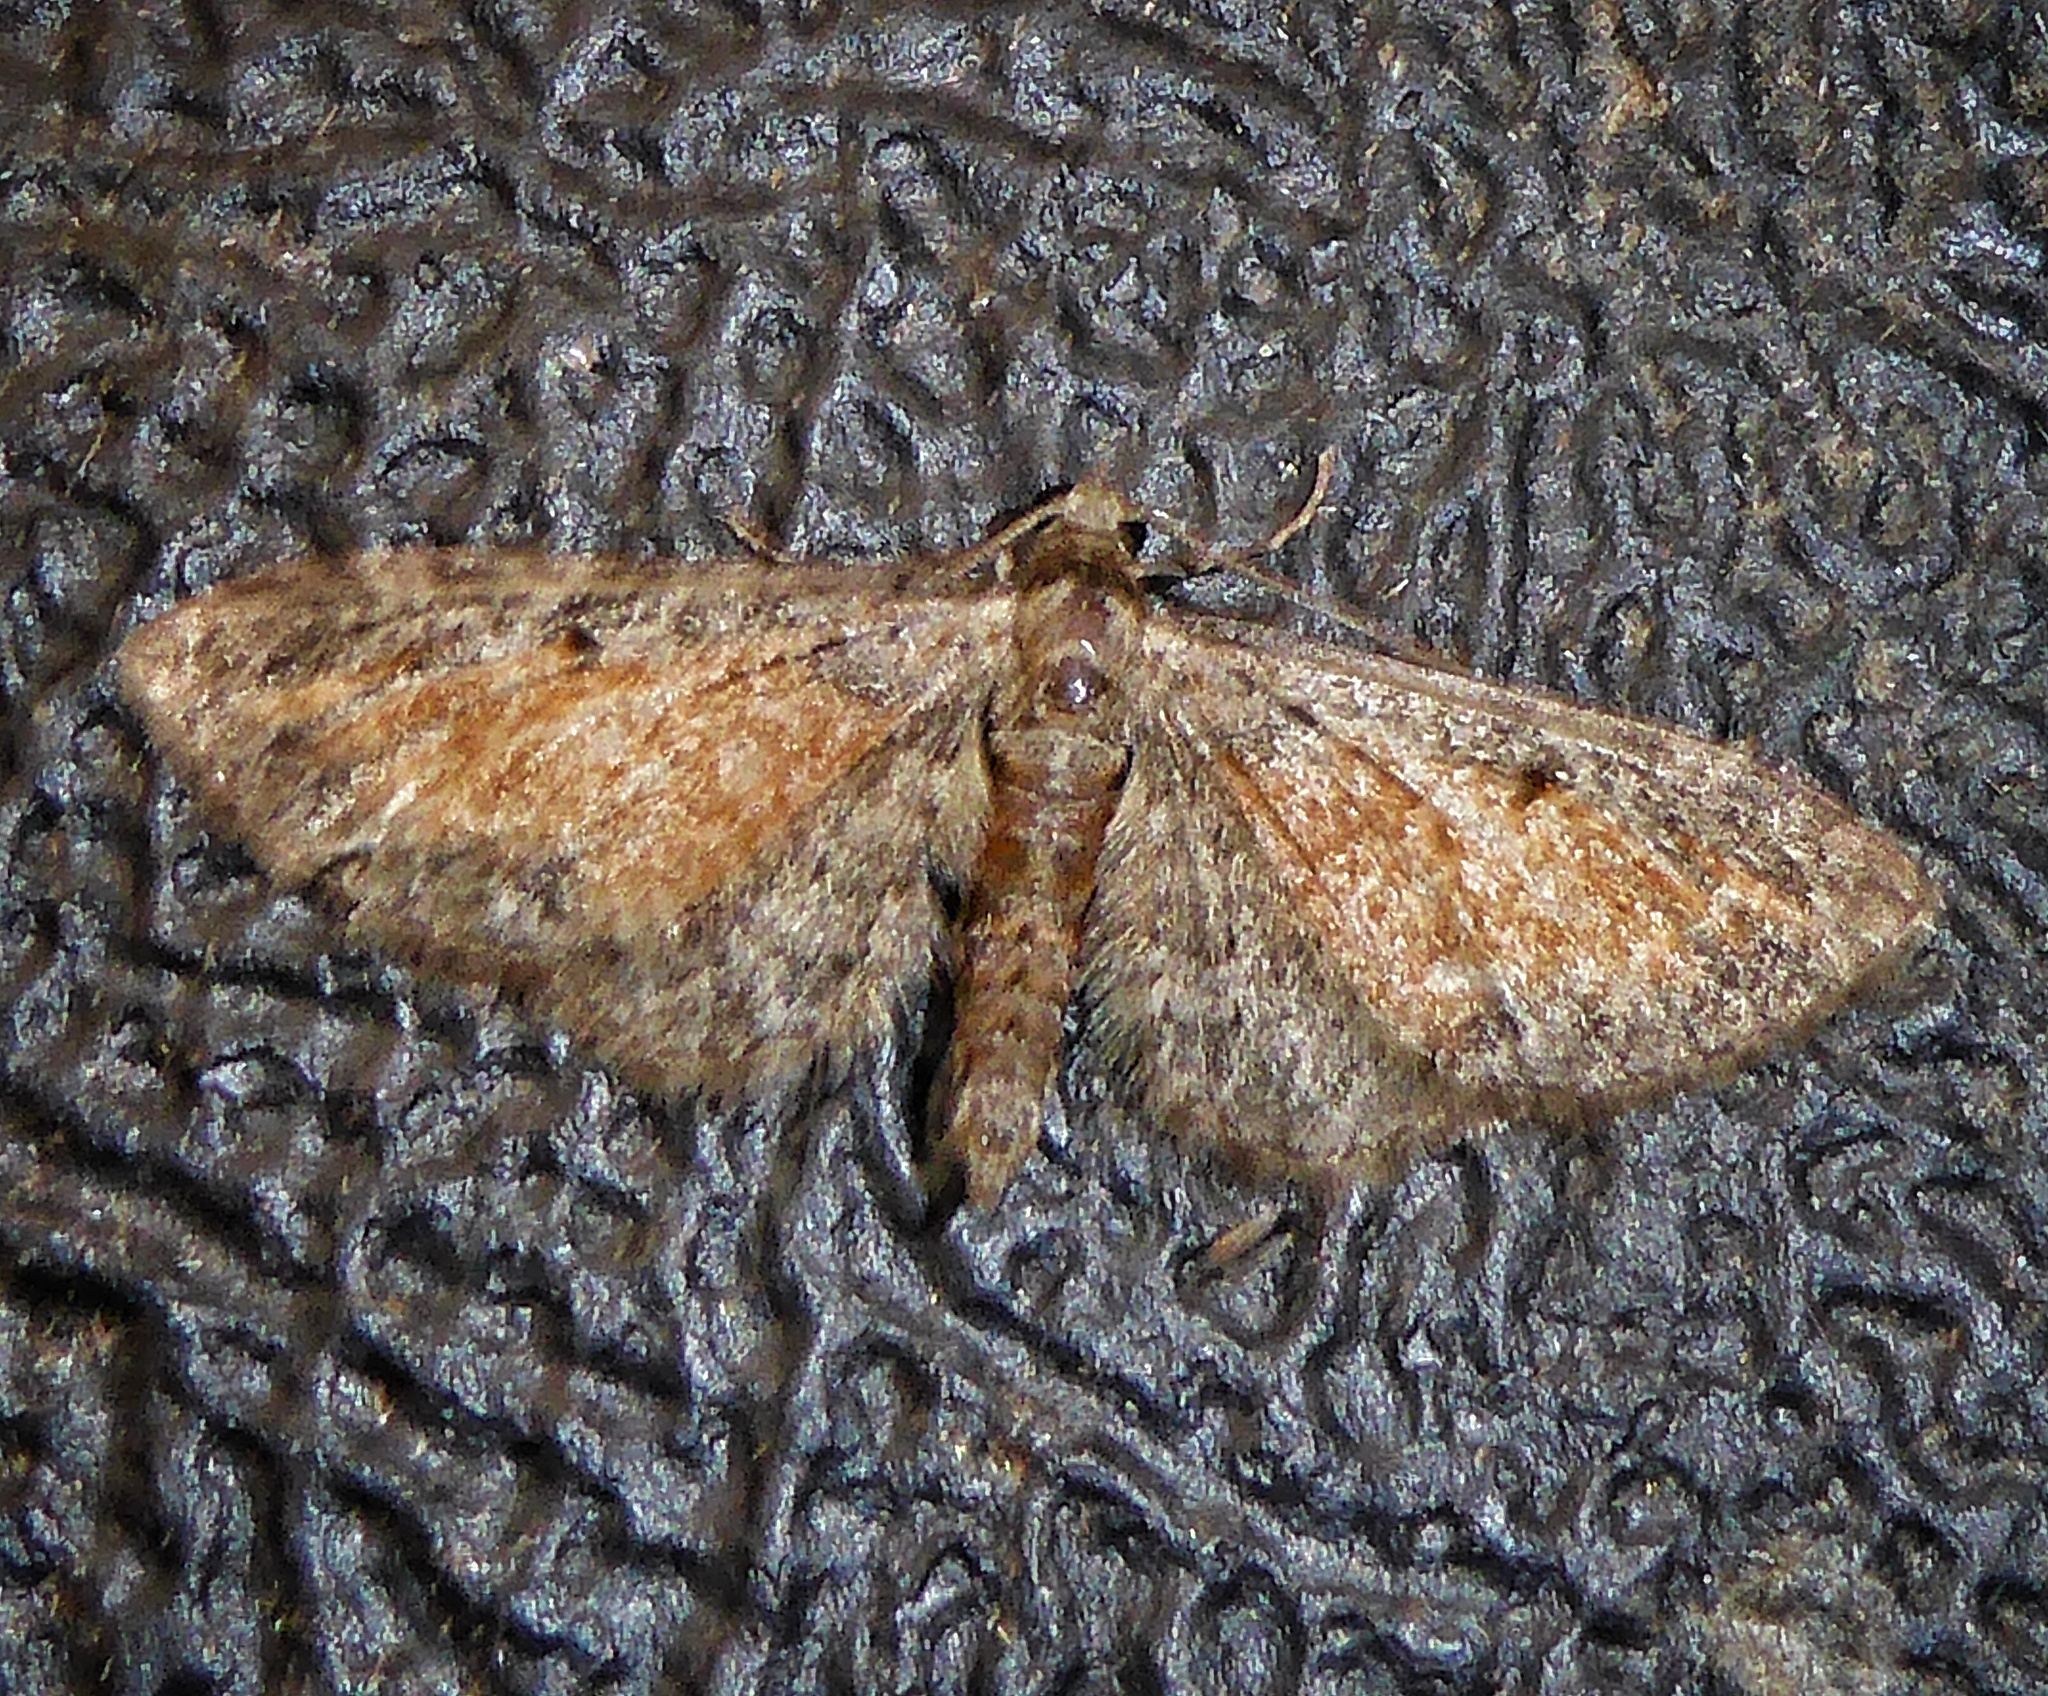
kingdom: Animalia
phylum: Arthropoda
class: Insecta
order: Lepidoptera
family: Geometridae
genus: Eupithecia
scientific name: Eupithecia icterata
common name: Tawny speckled pug
